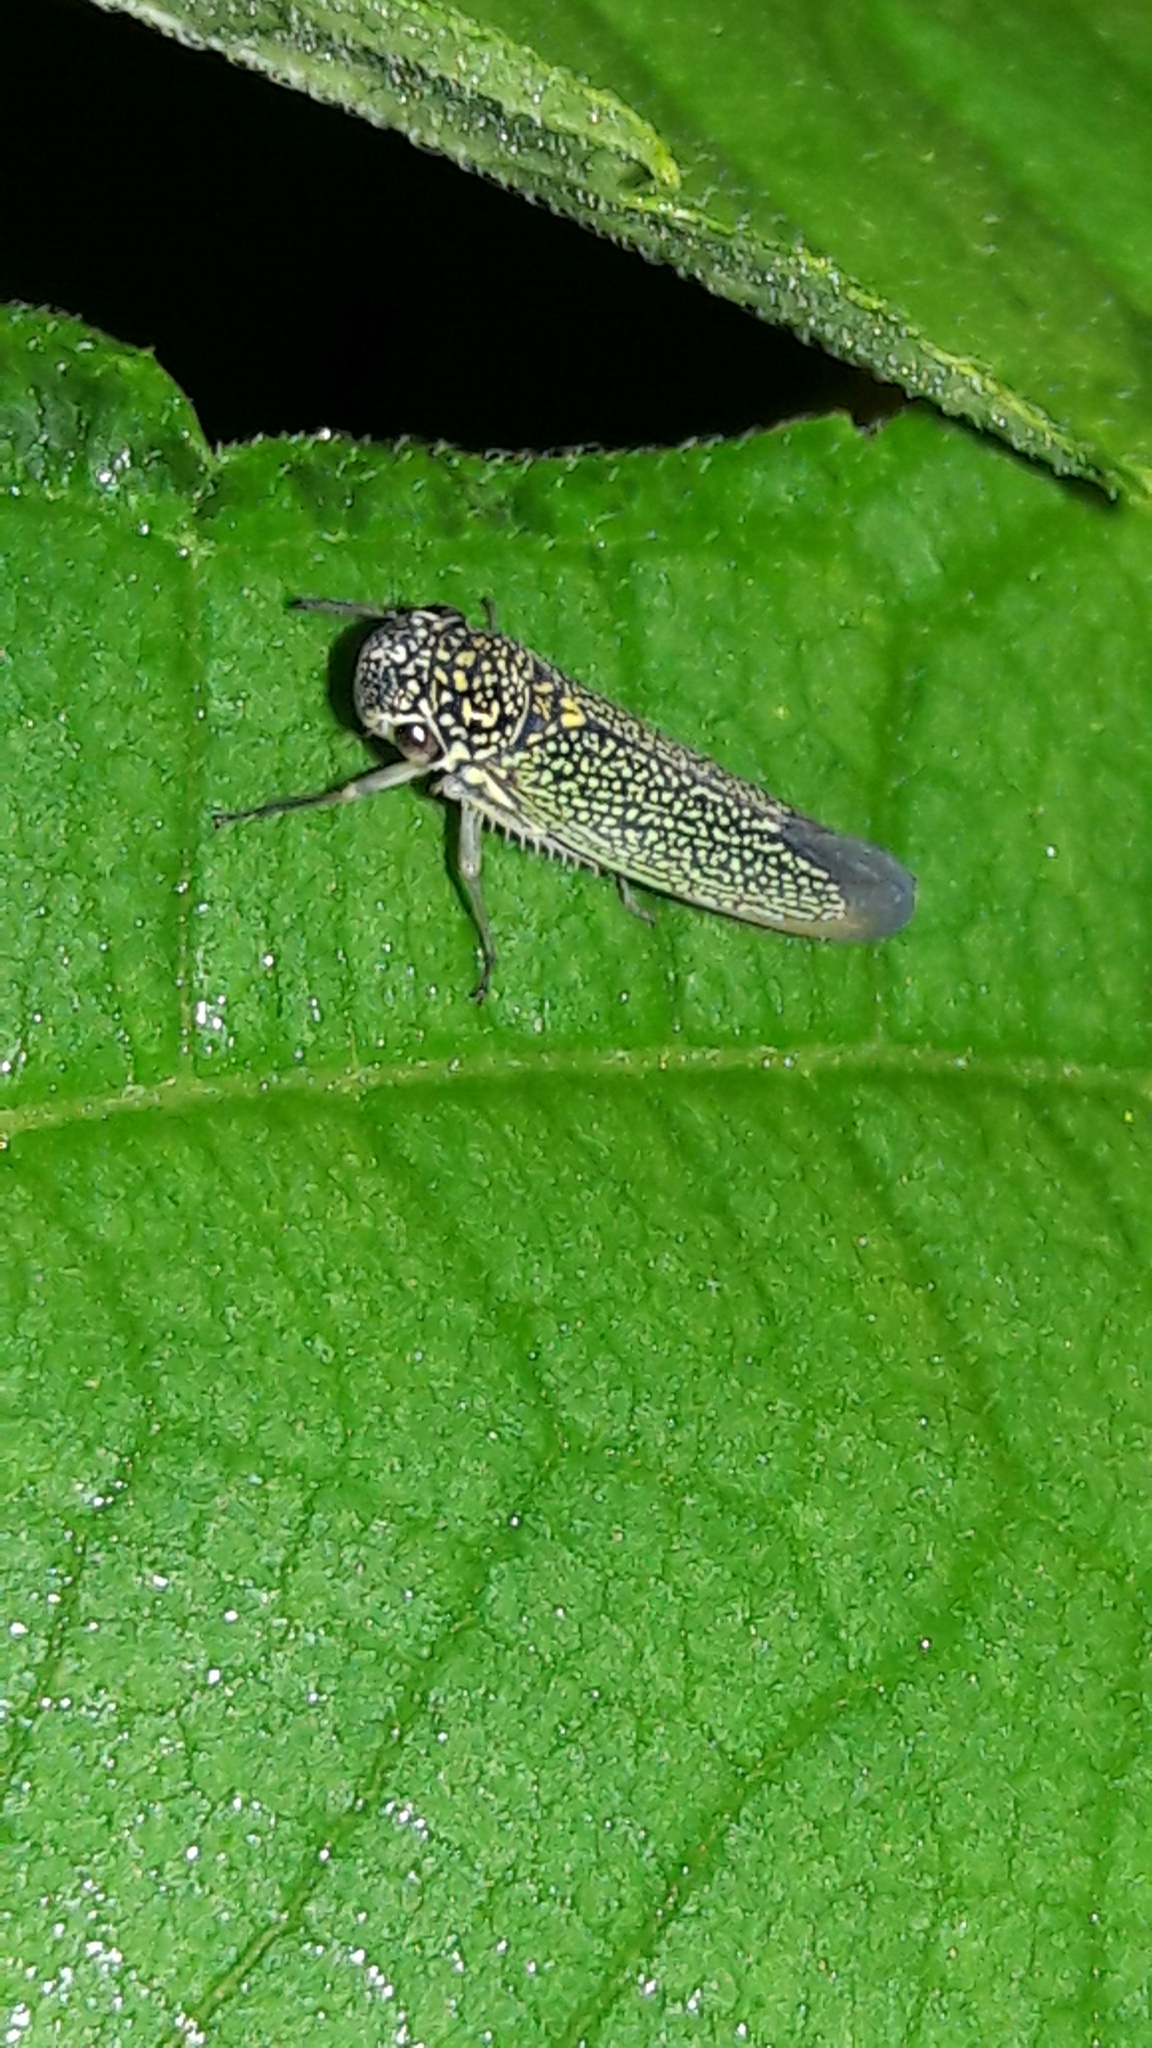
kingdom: Animalia
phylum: Arthropoda
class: Insecta
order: Hemiptera
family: Cicadellidae
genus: Macugonalia
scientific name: Macugonalia cavifrons
